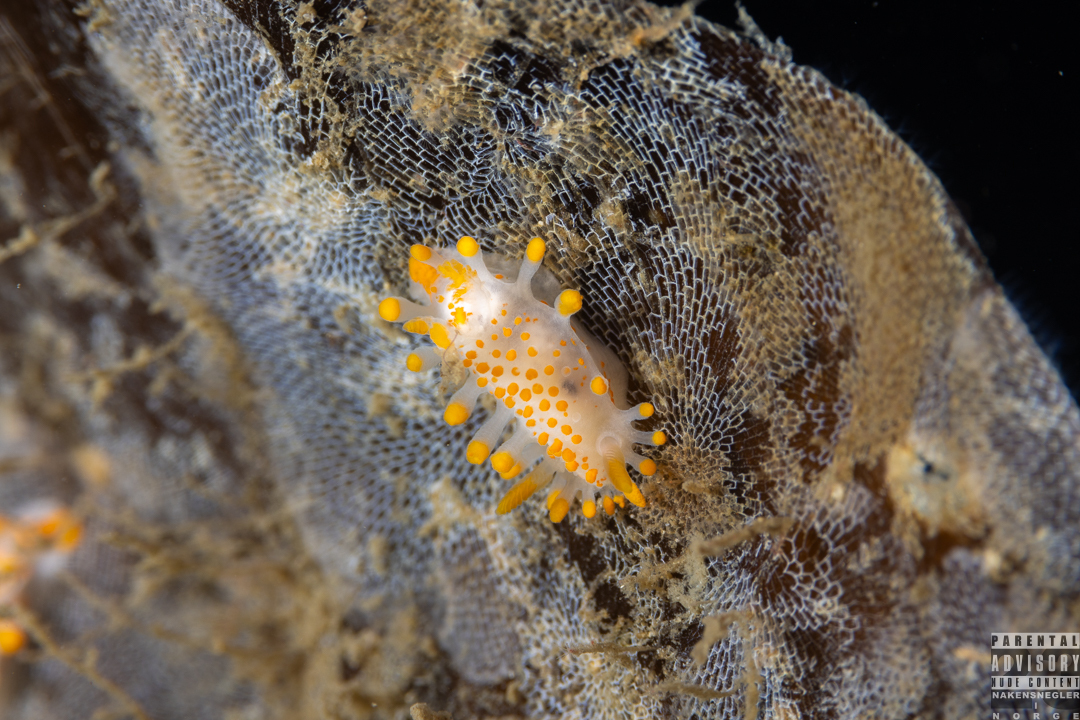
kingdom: Animalia
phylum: Mollusca
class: Gastropoda
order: Nudibranchia
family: Polyceridae
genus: Limacia
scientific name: Limacia clavigera
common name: Orange-clubbed sea slug
